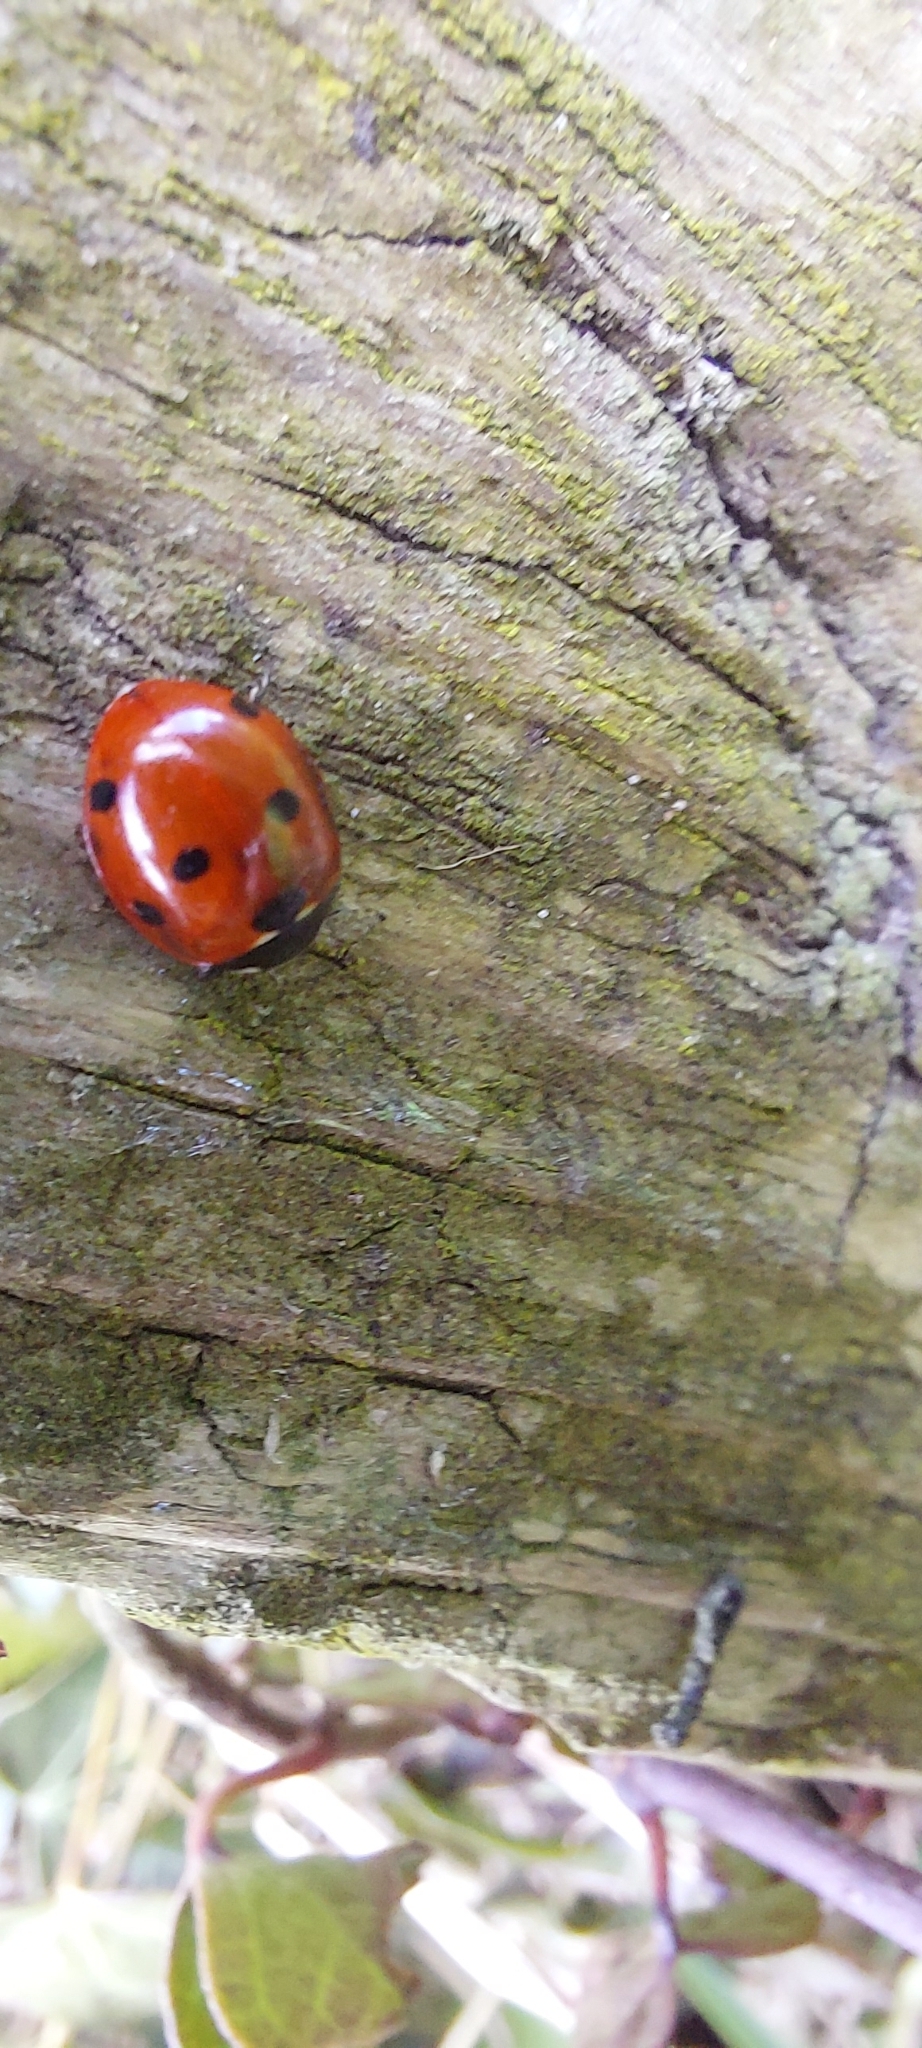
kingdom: Animalia
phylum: Arthropoda
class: Insecta
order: Coleoptera
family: Coccinellidae
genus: Coccinella
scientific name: Coccinella septempunctata
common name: Sevenspotted lady beetle
